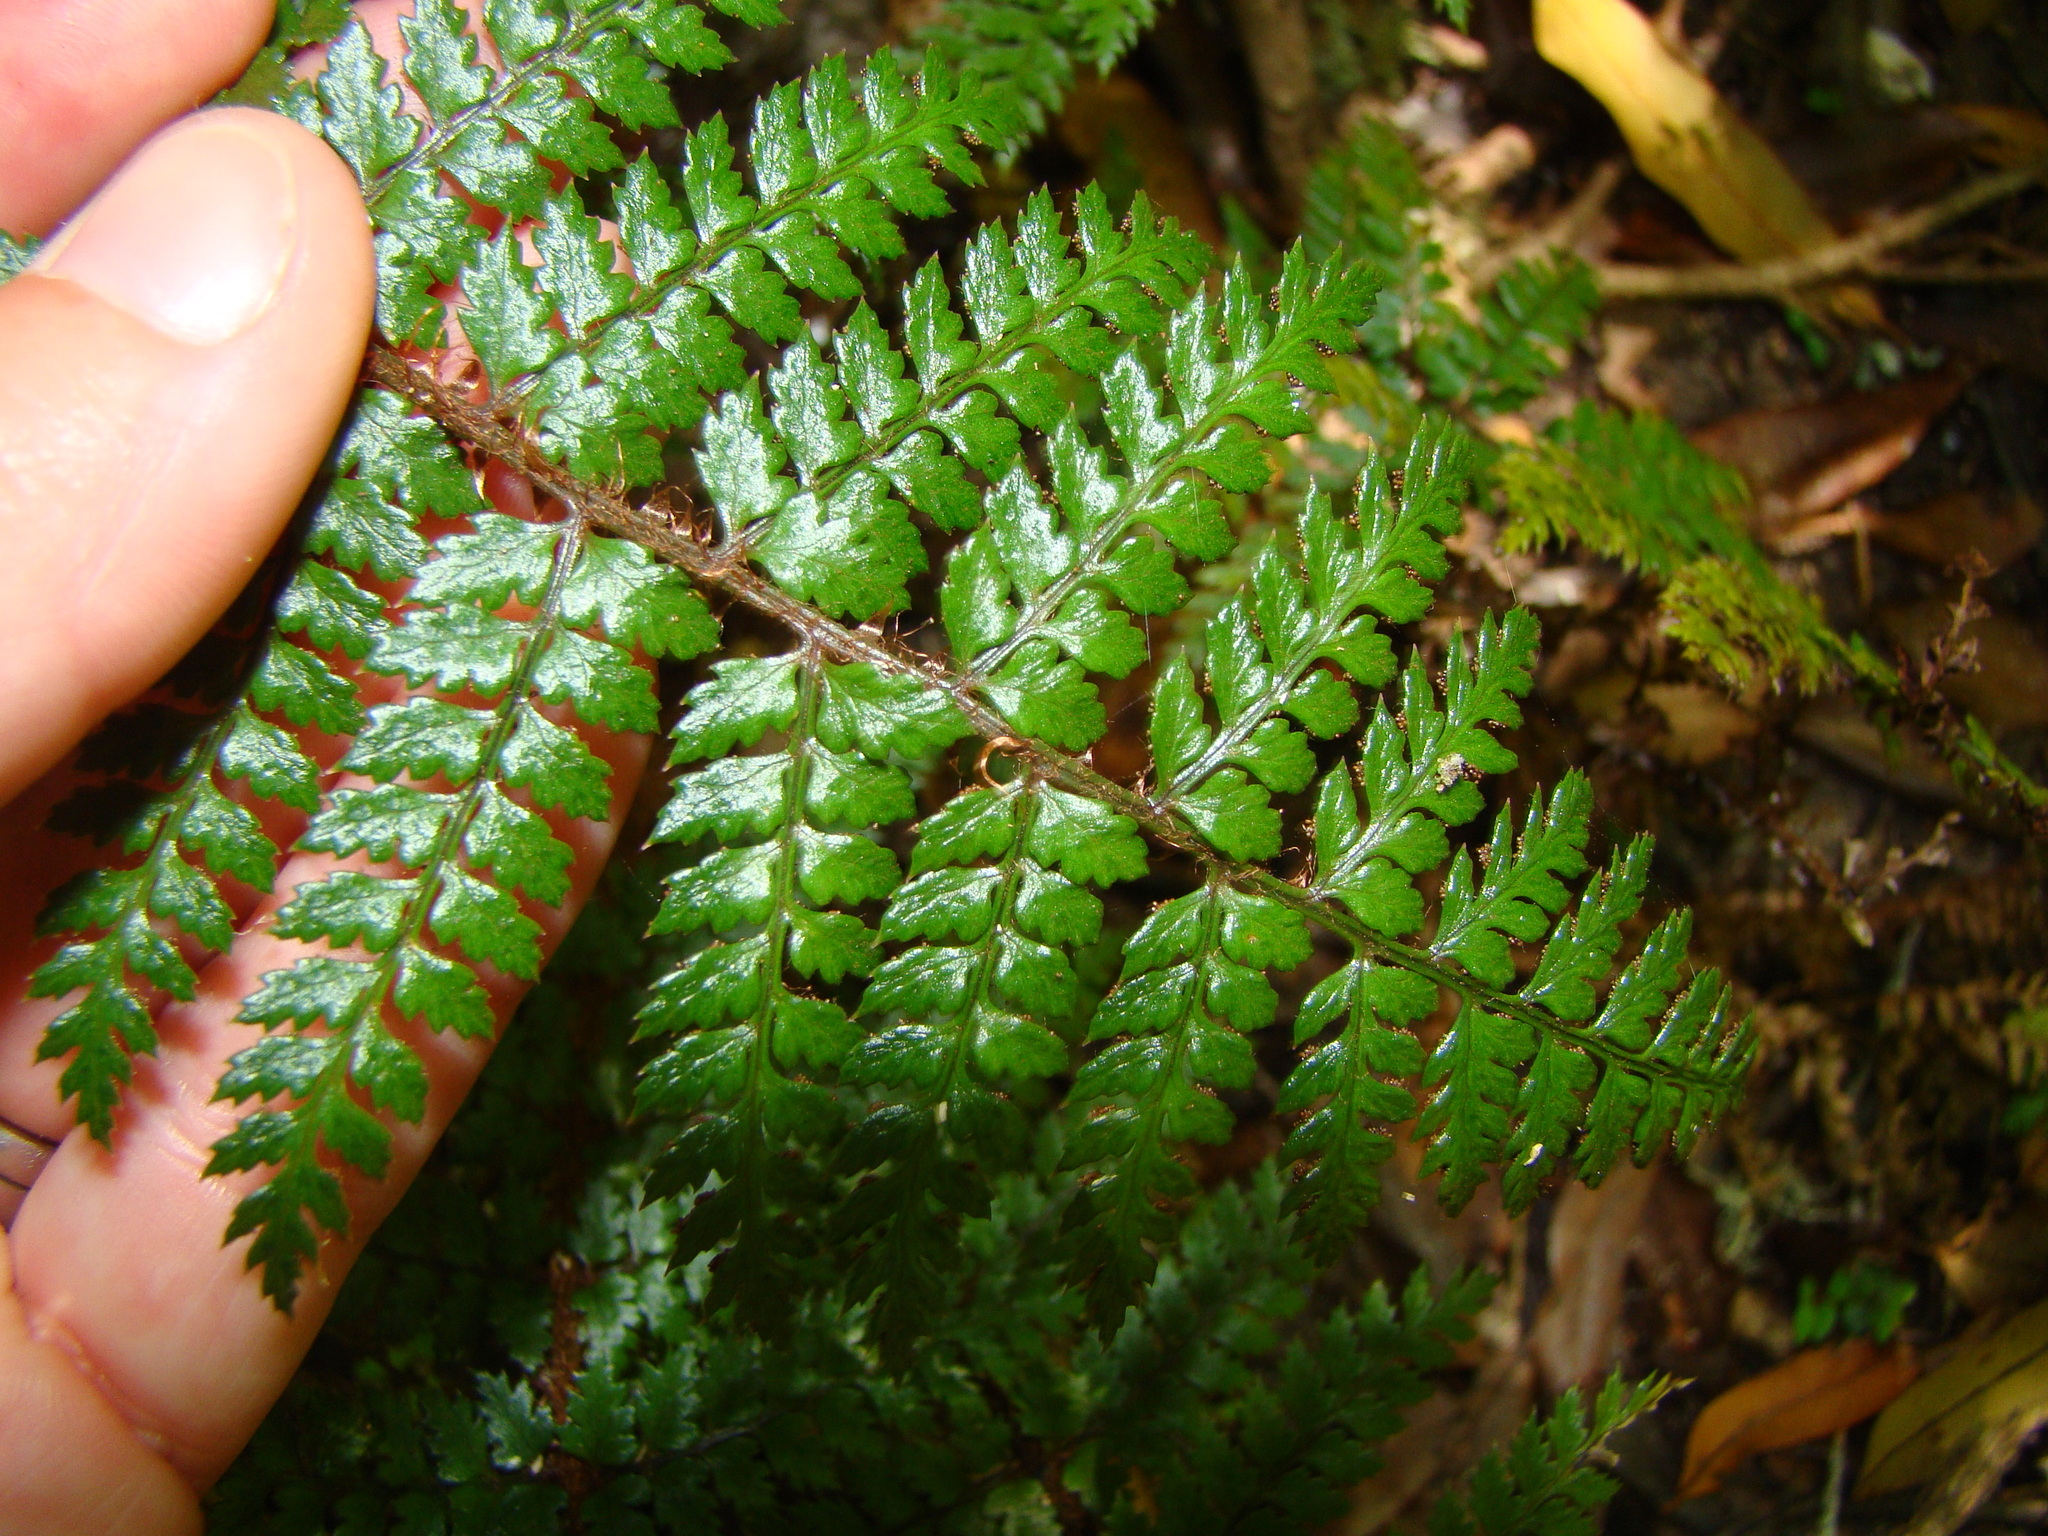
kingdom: Plantae
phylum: Tracheophyta
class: Polypodiopsida
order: Polypodiales
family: Dryopteridaceae
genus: Polystichum
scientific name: Polystichum vestitum
